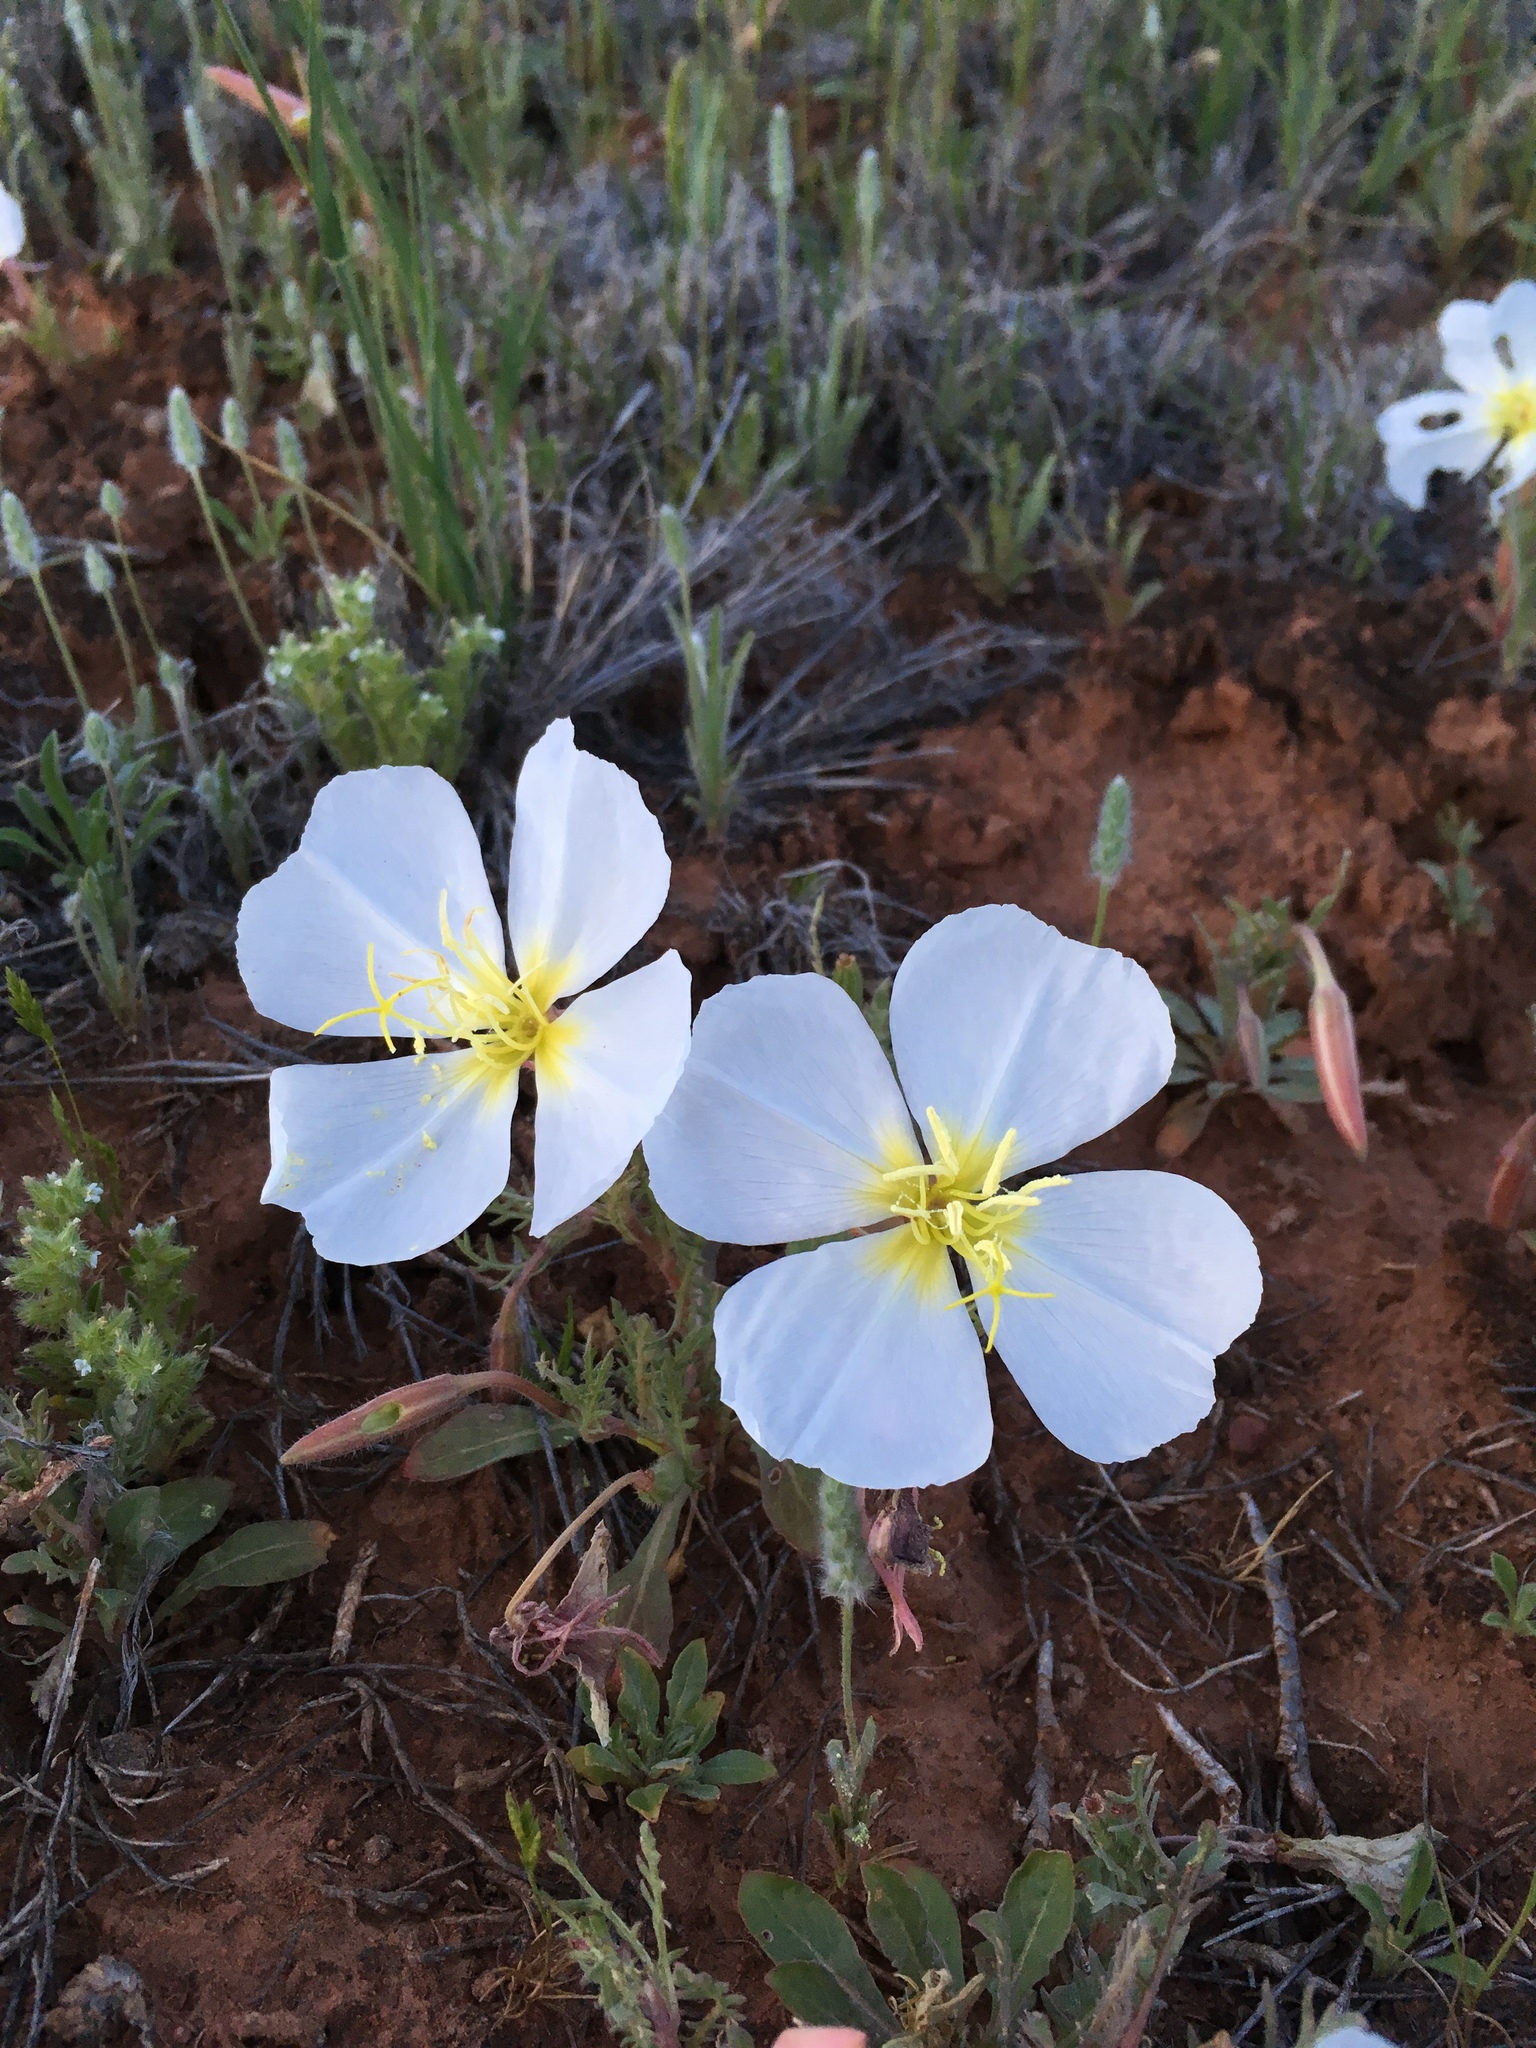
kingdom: Plantae
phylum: Tracheophyta
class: Magnoliopsida
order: Myrtales
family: Onagraceae
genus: Oenothera
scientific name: Oenothera albicaulis
